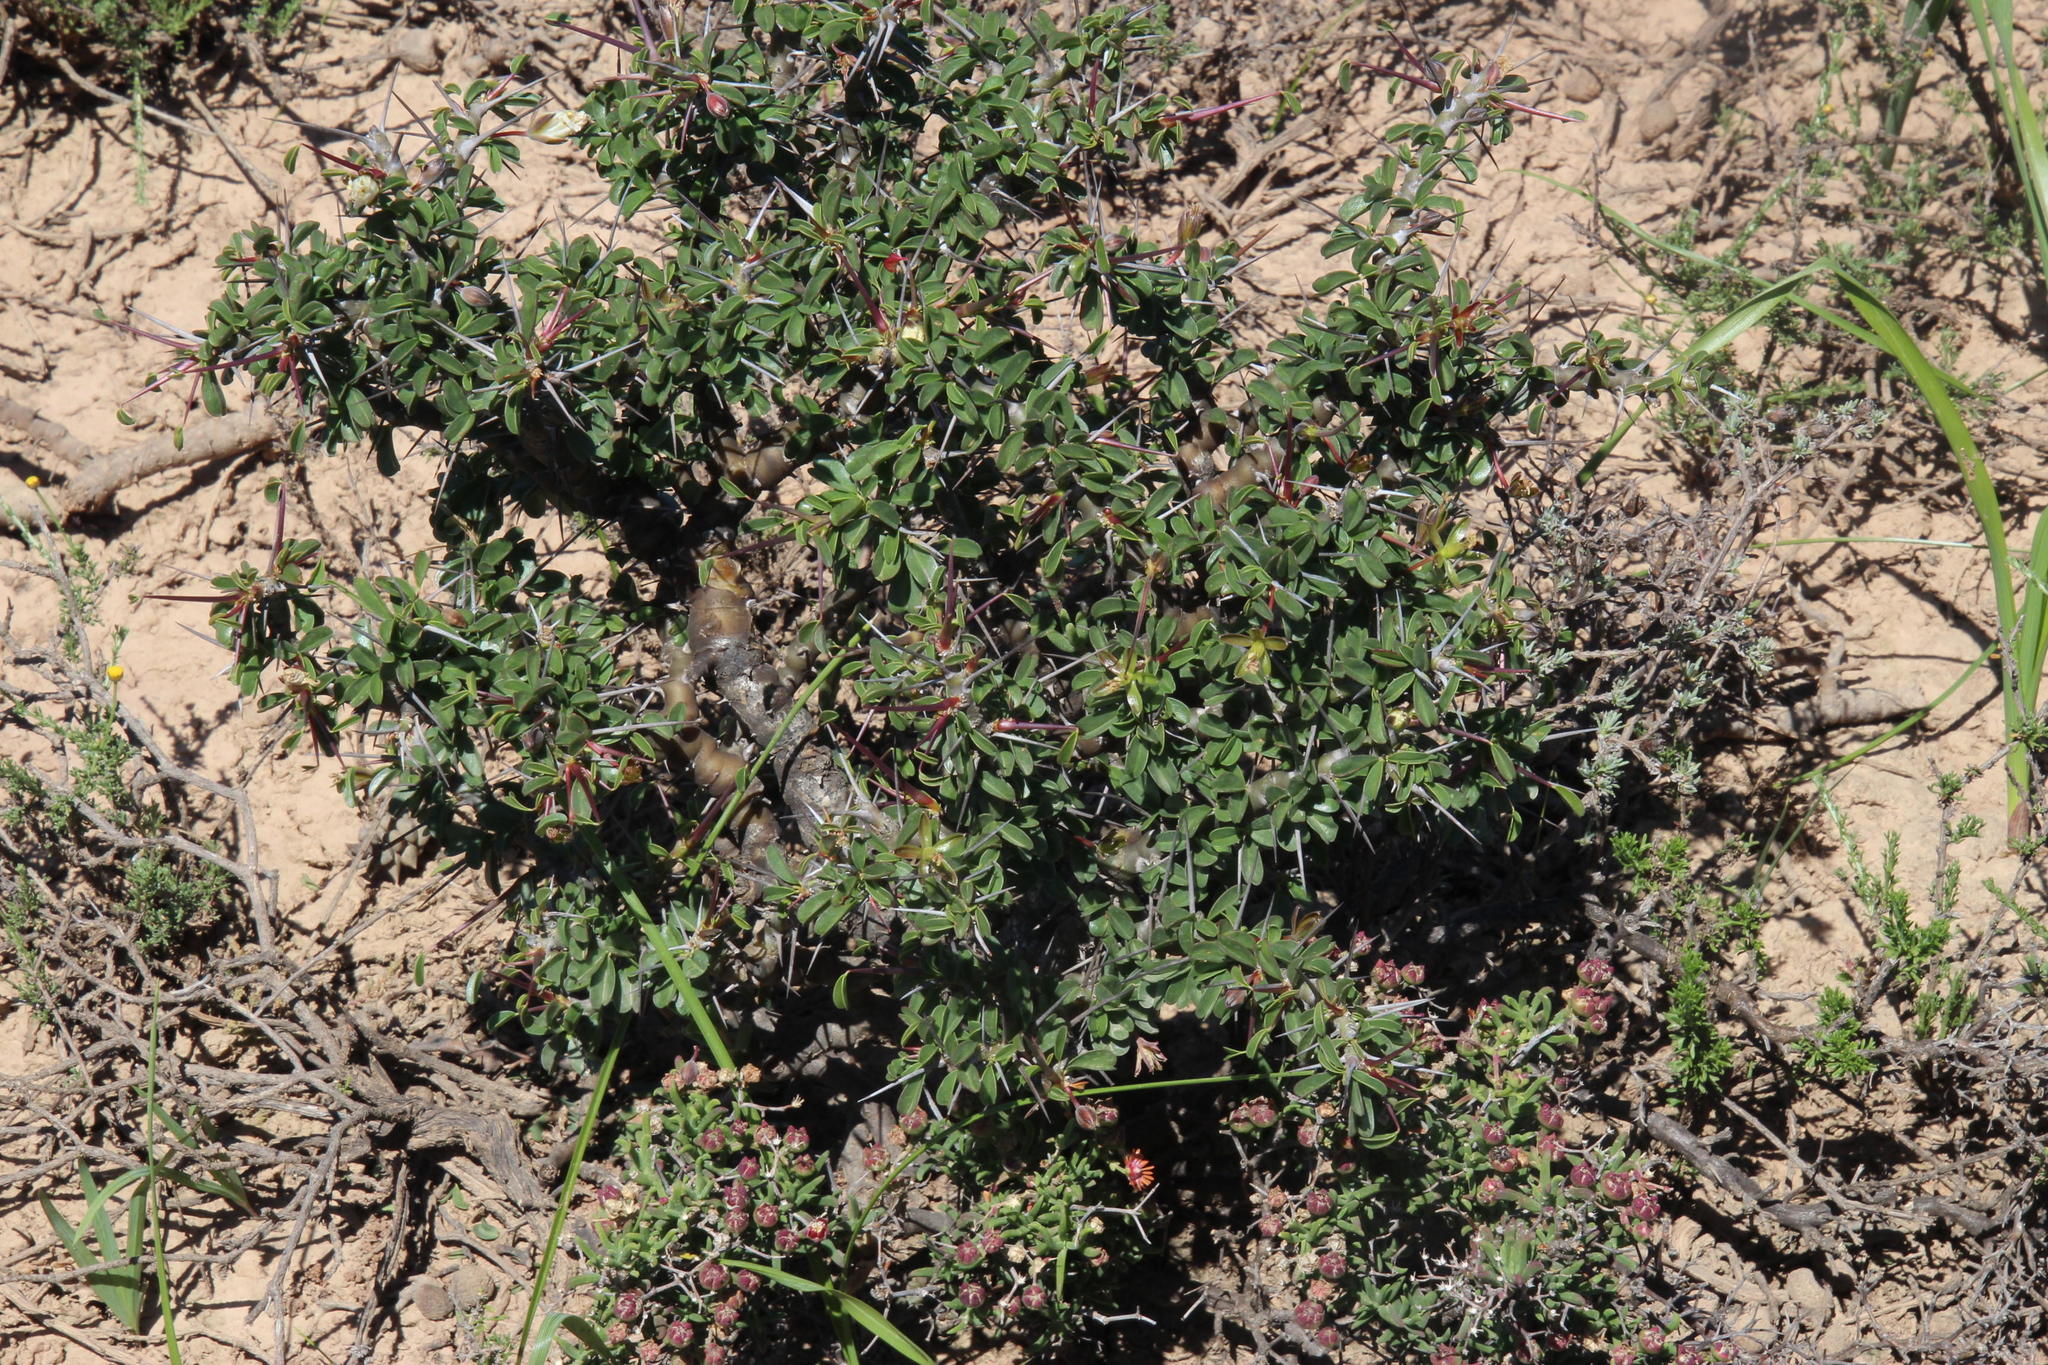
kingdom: Plantae
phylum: Tracheophyta
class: Magnoliopsida
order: Geraniales
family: Geraniaceae
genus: Monsonia
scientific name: Monsonia camdeboensis
